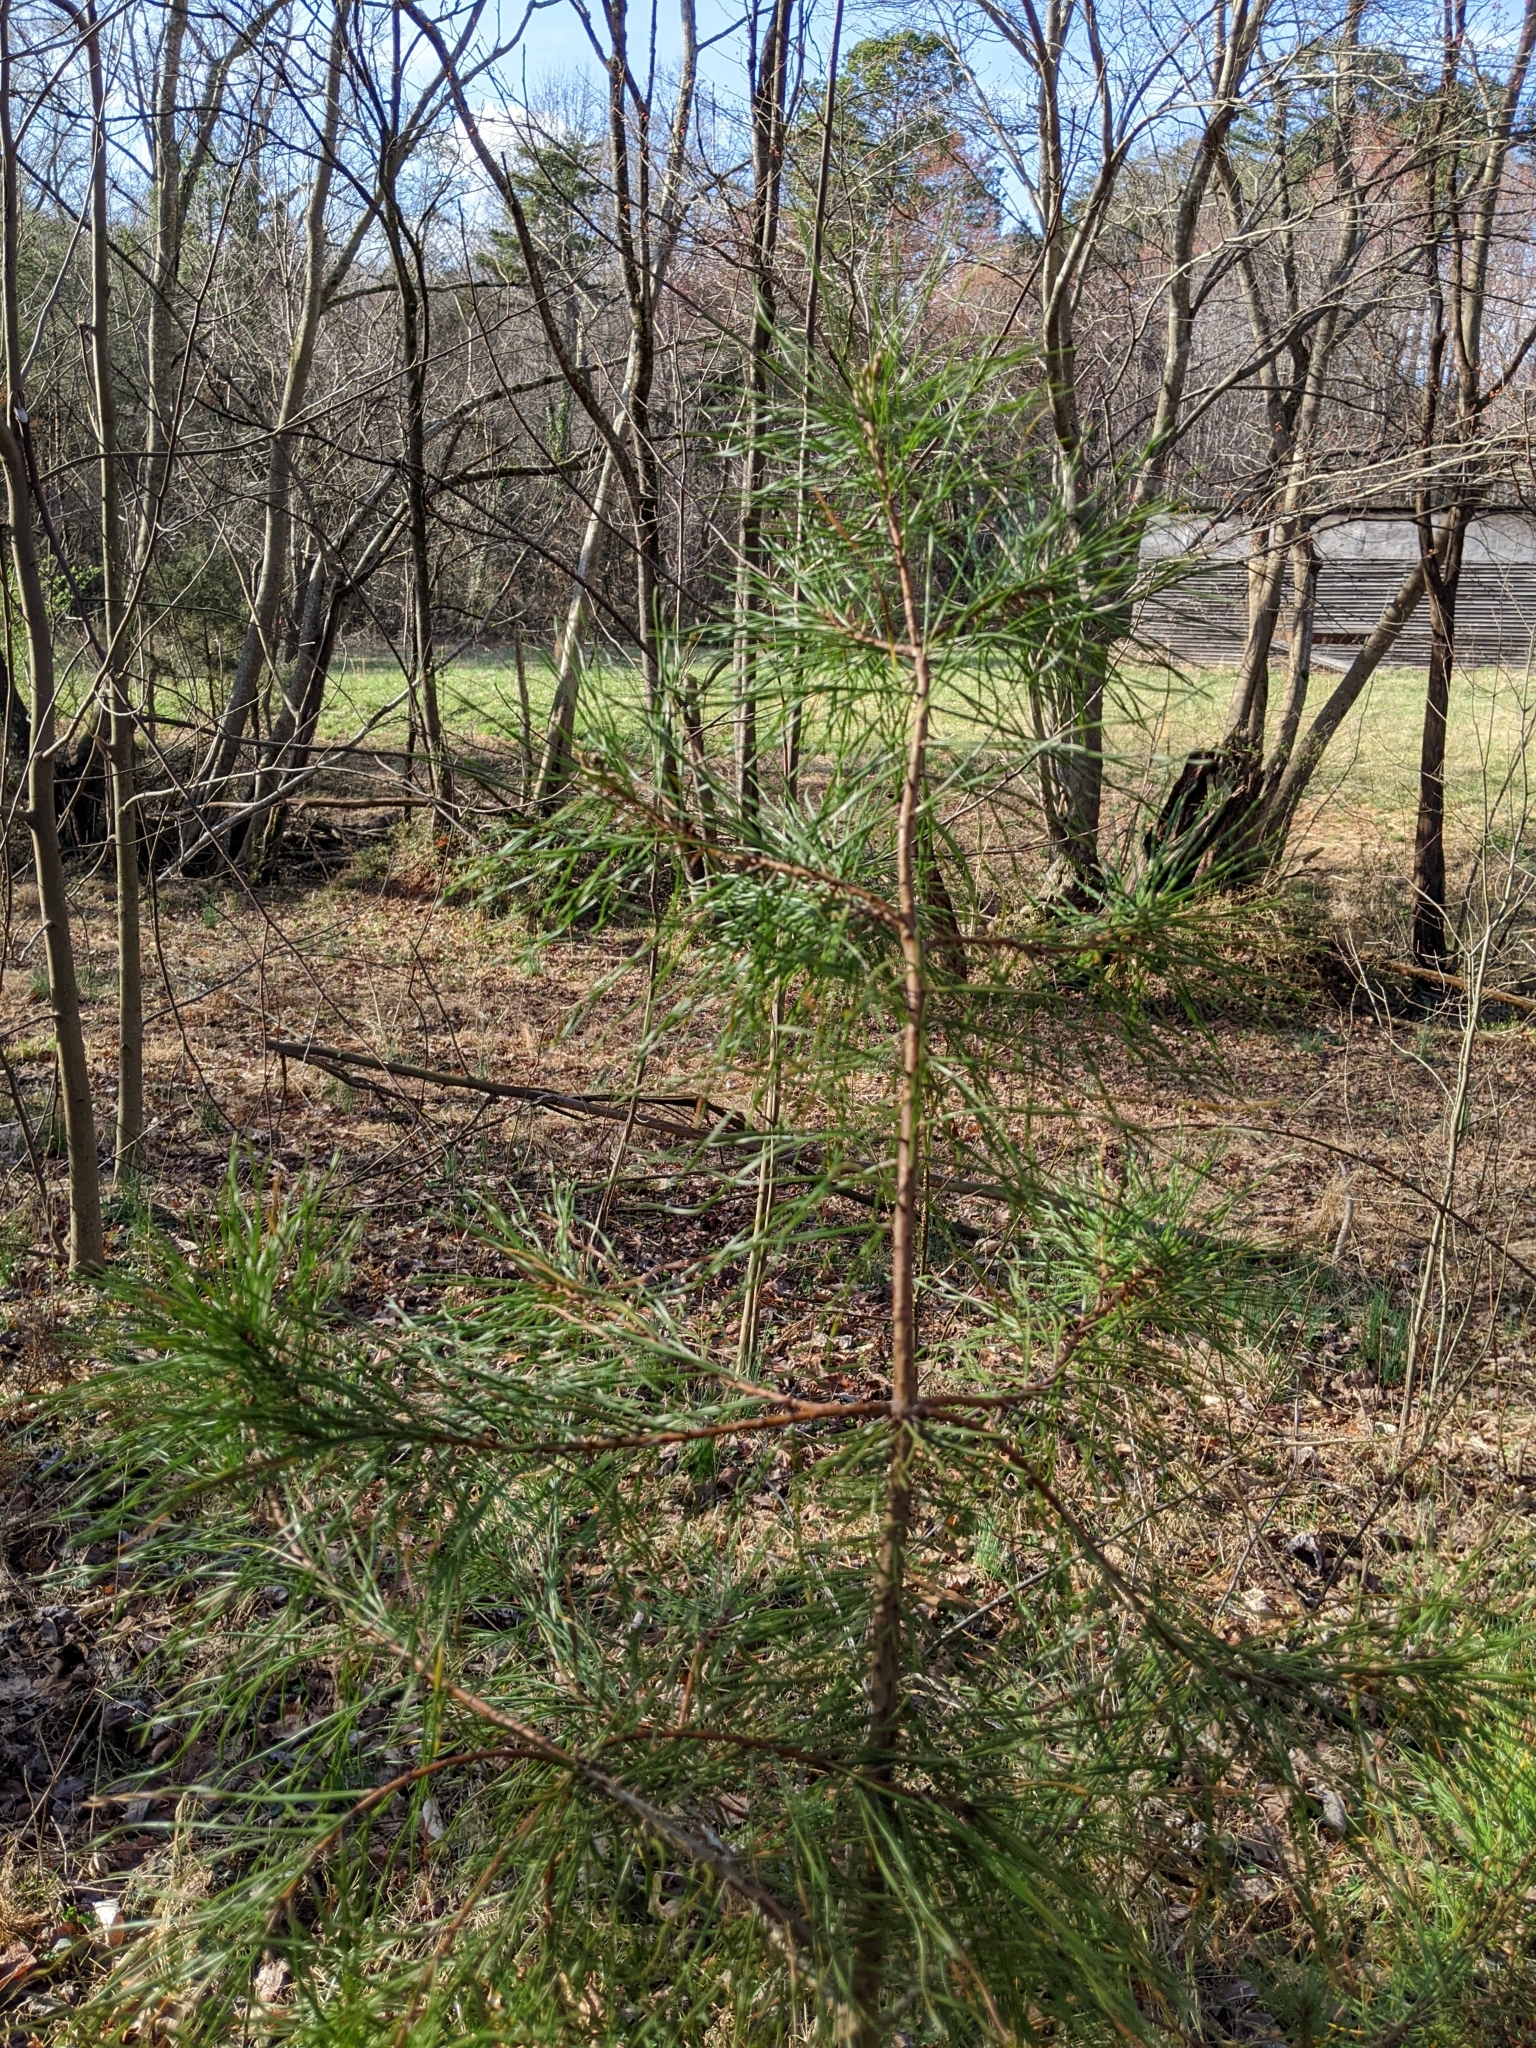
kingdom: Plantae
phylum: Tracheophyta
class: Pinopsida
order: Pinales
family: Pinaceae
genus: Pinus
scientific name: Pinus echinata
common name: Shortleaf pine
